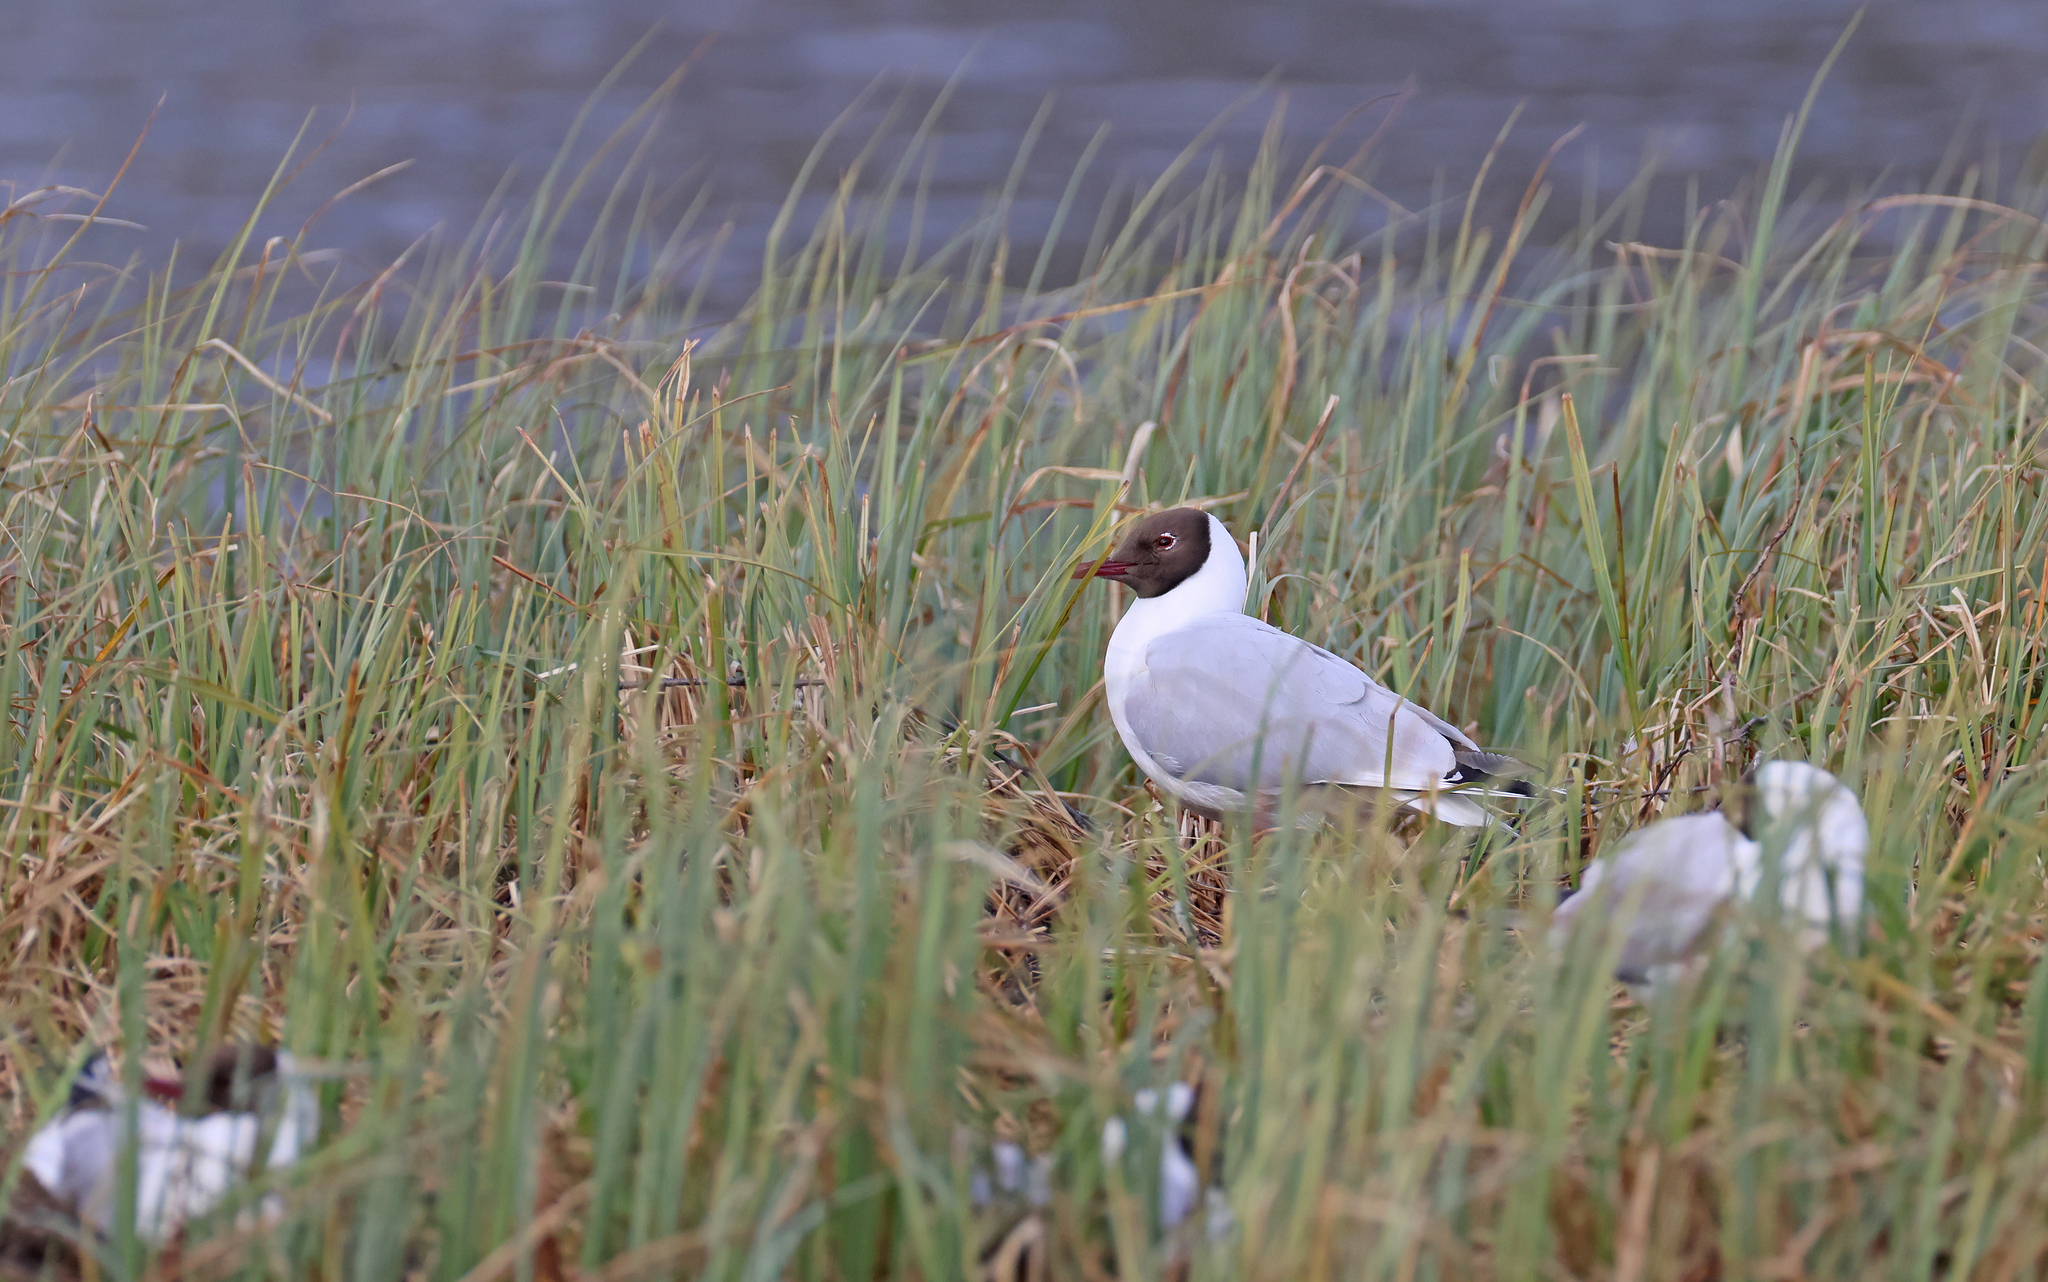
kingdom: Animalia
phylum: Chordata
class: Aves
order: Charadriiformes
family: Laridae
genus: Chroicocephalus
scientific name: Chroicocephalus ridibundus
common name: Black-headed gull
